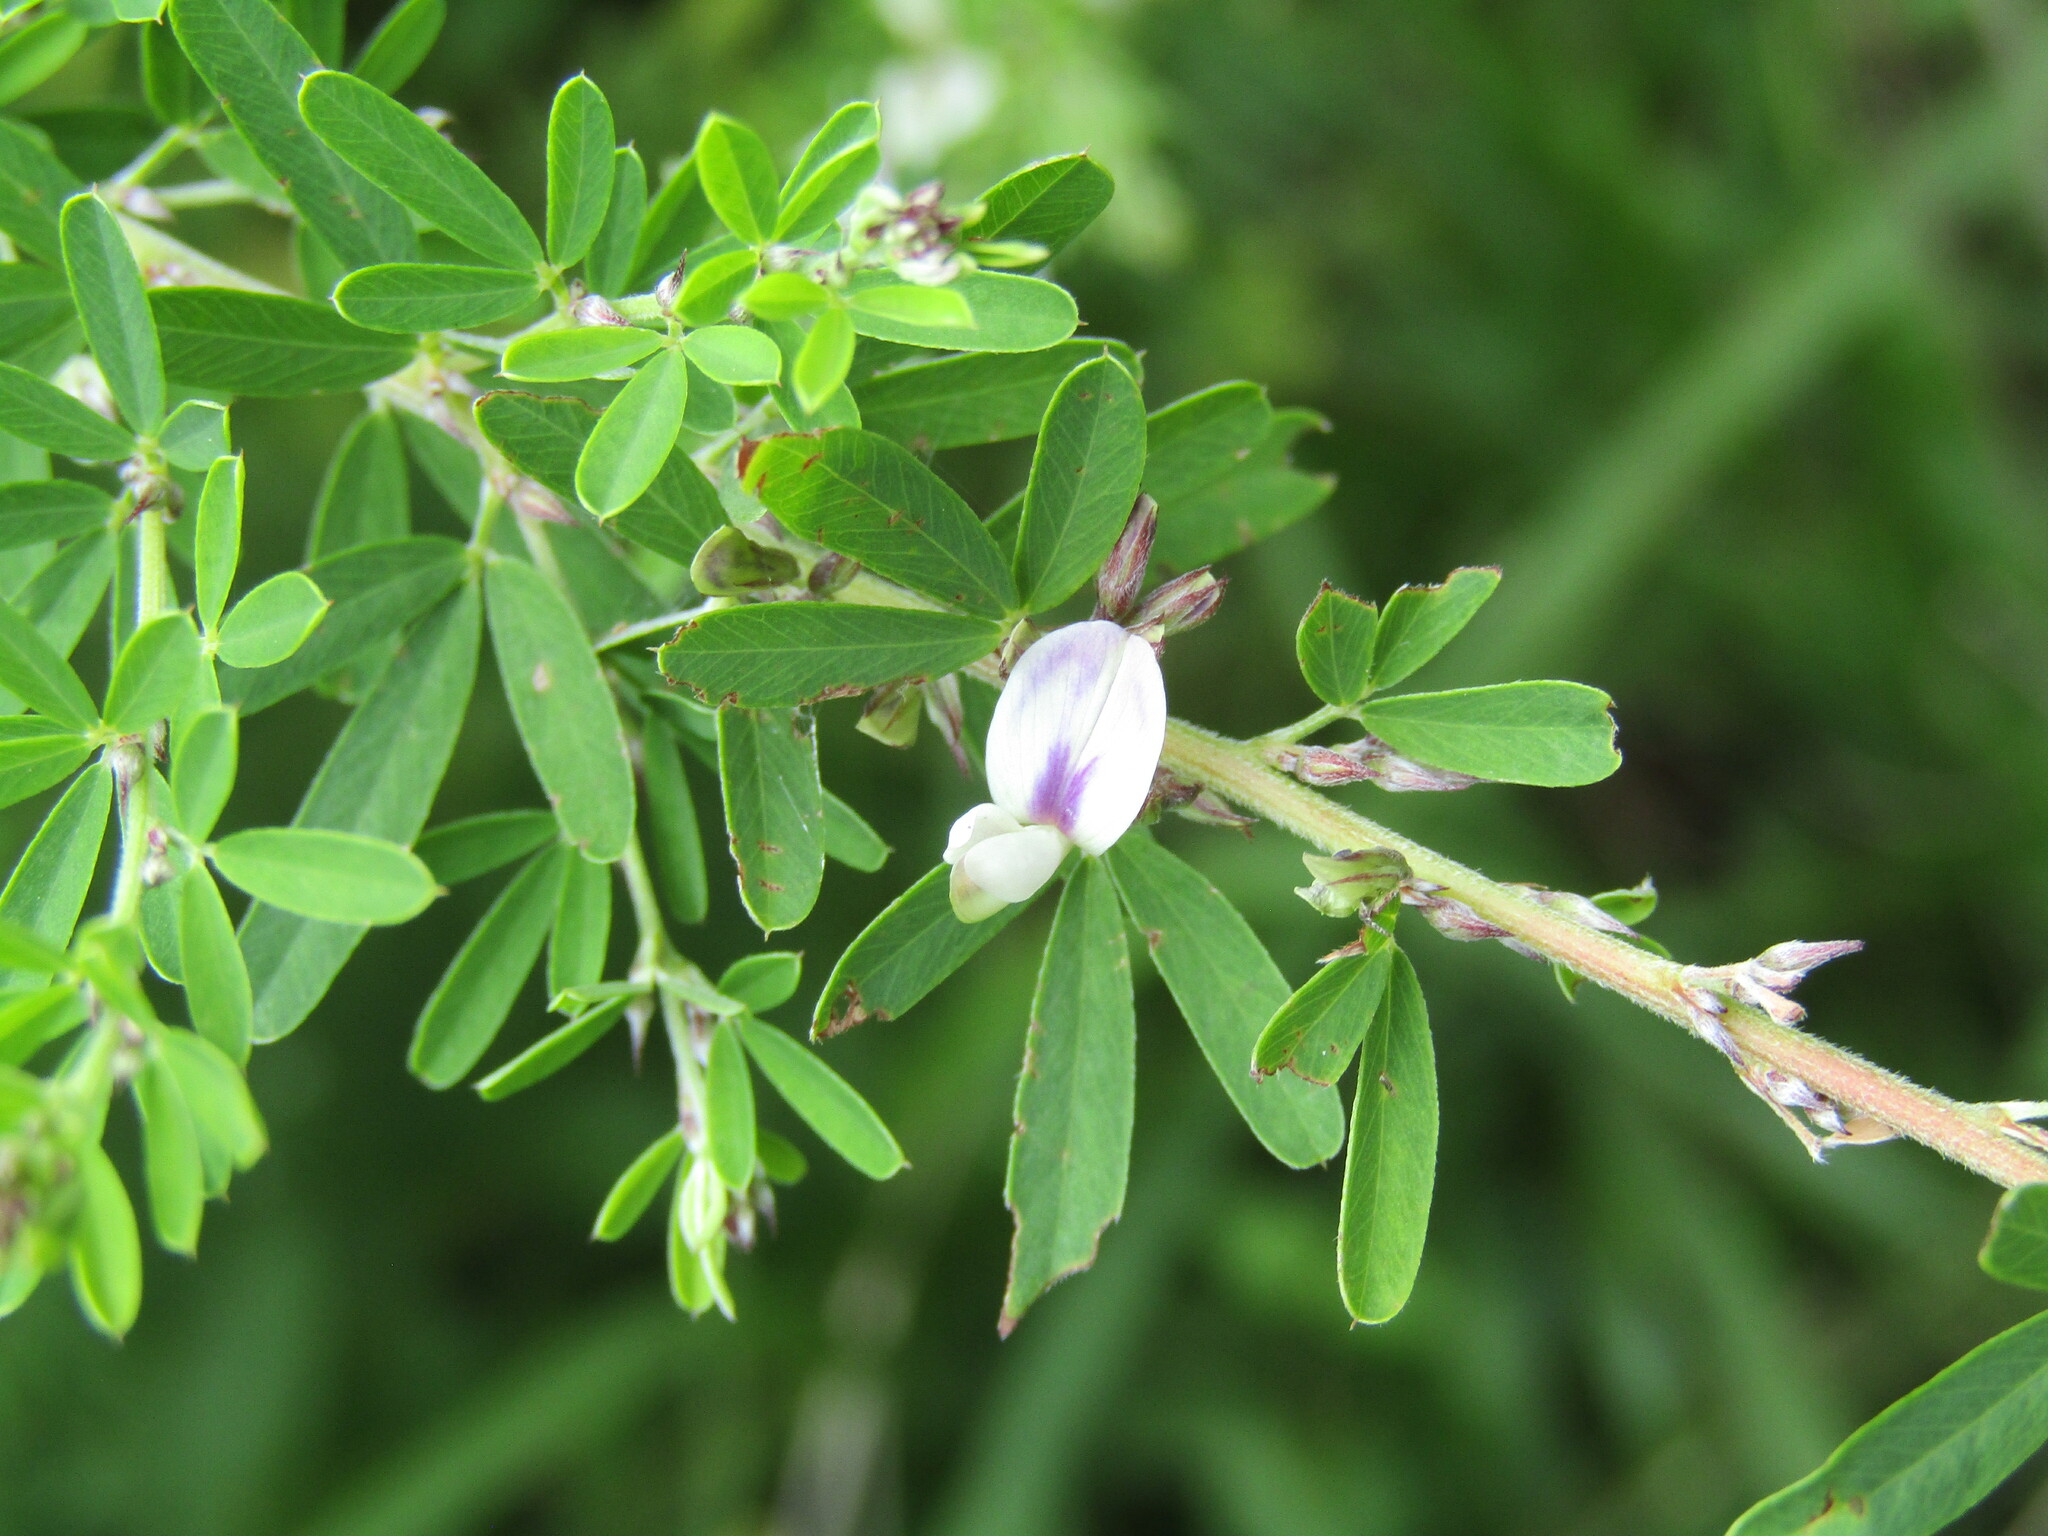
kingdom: Plantae
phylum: Tracheophyta
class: Magnoliopsida
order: Fabales
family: Fabaceae
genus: Lespedeza
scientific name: Lespedeza cuneata
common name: Chinese bush-clover
